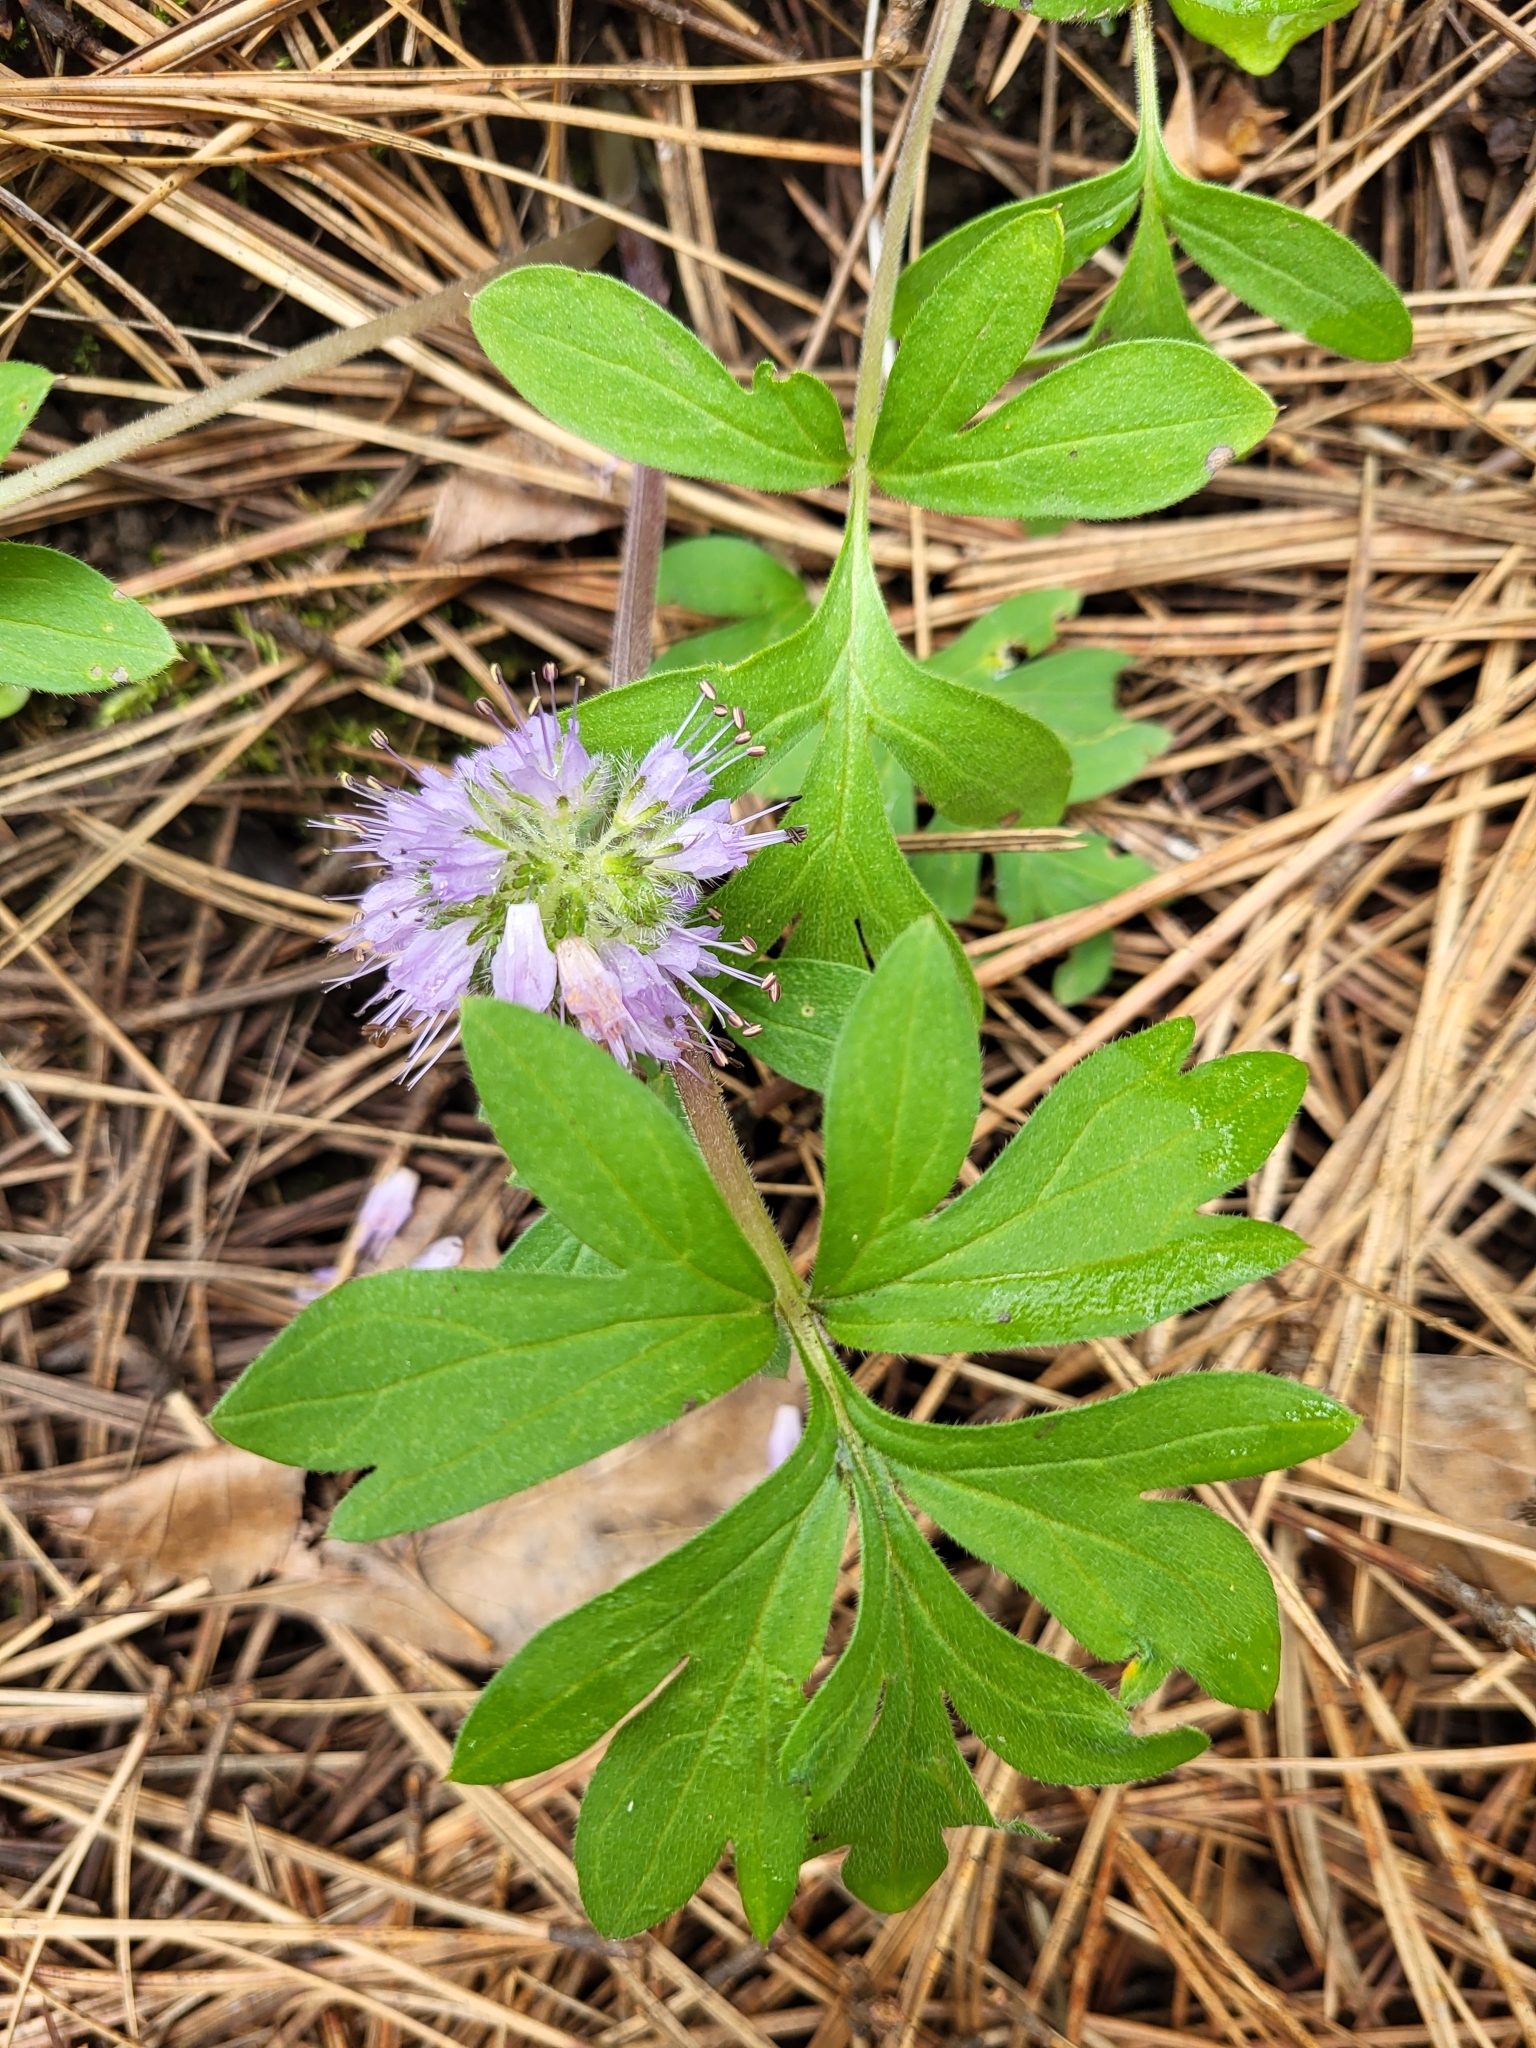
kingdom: Plantae
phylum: Tracheophyta
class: Magnoliopsida
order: Boraginales
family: Hydrophyllaceae
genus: Hydrophyllum
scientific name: Hydrophyllum capitatum
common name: Woollen-breeches
